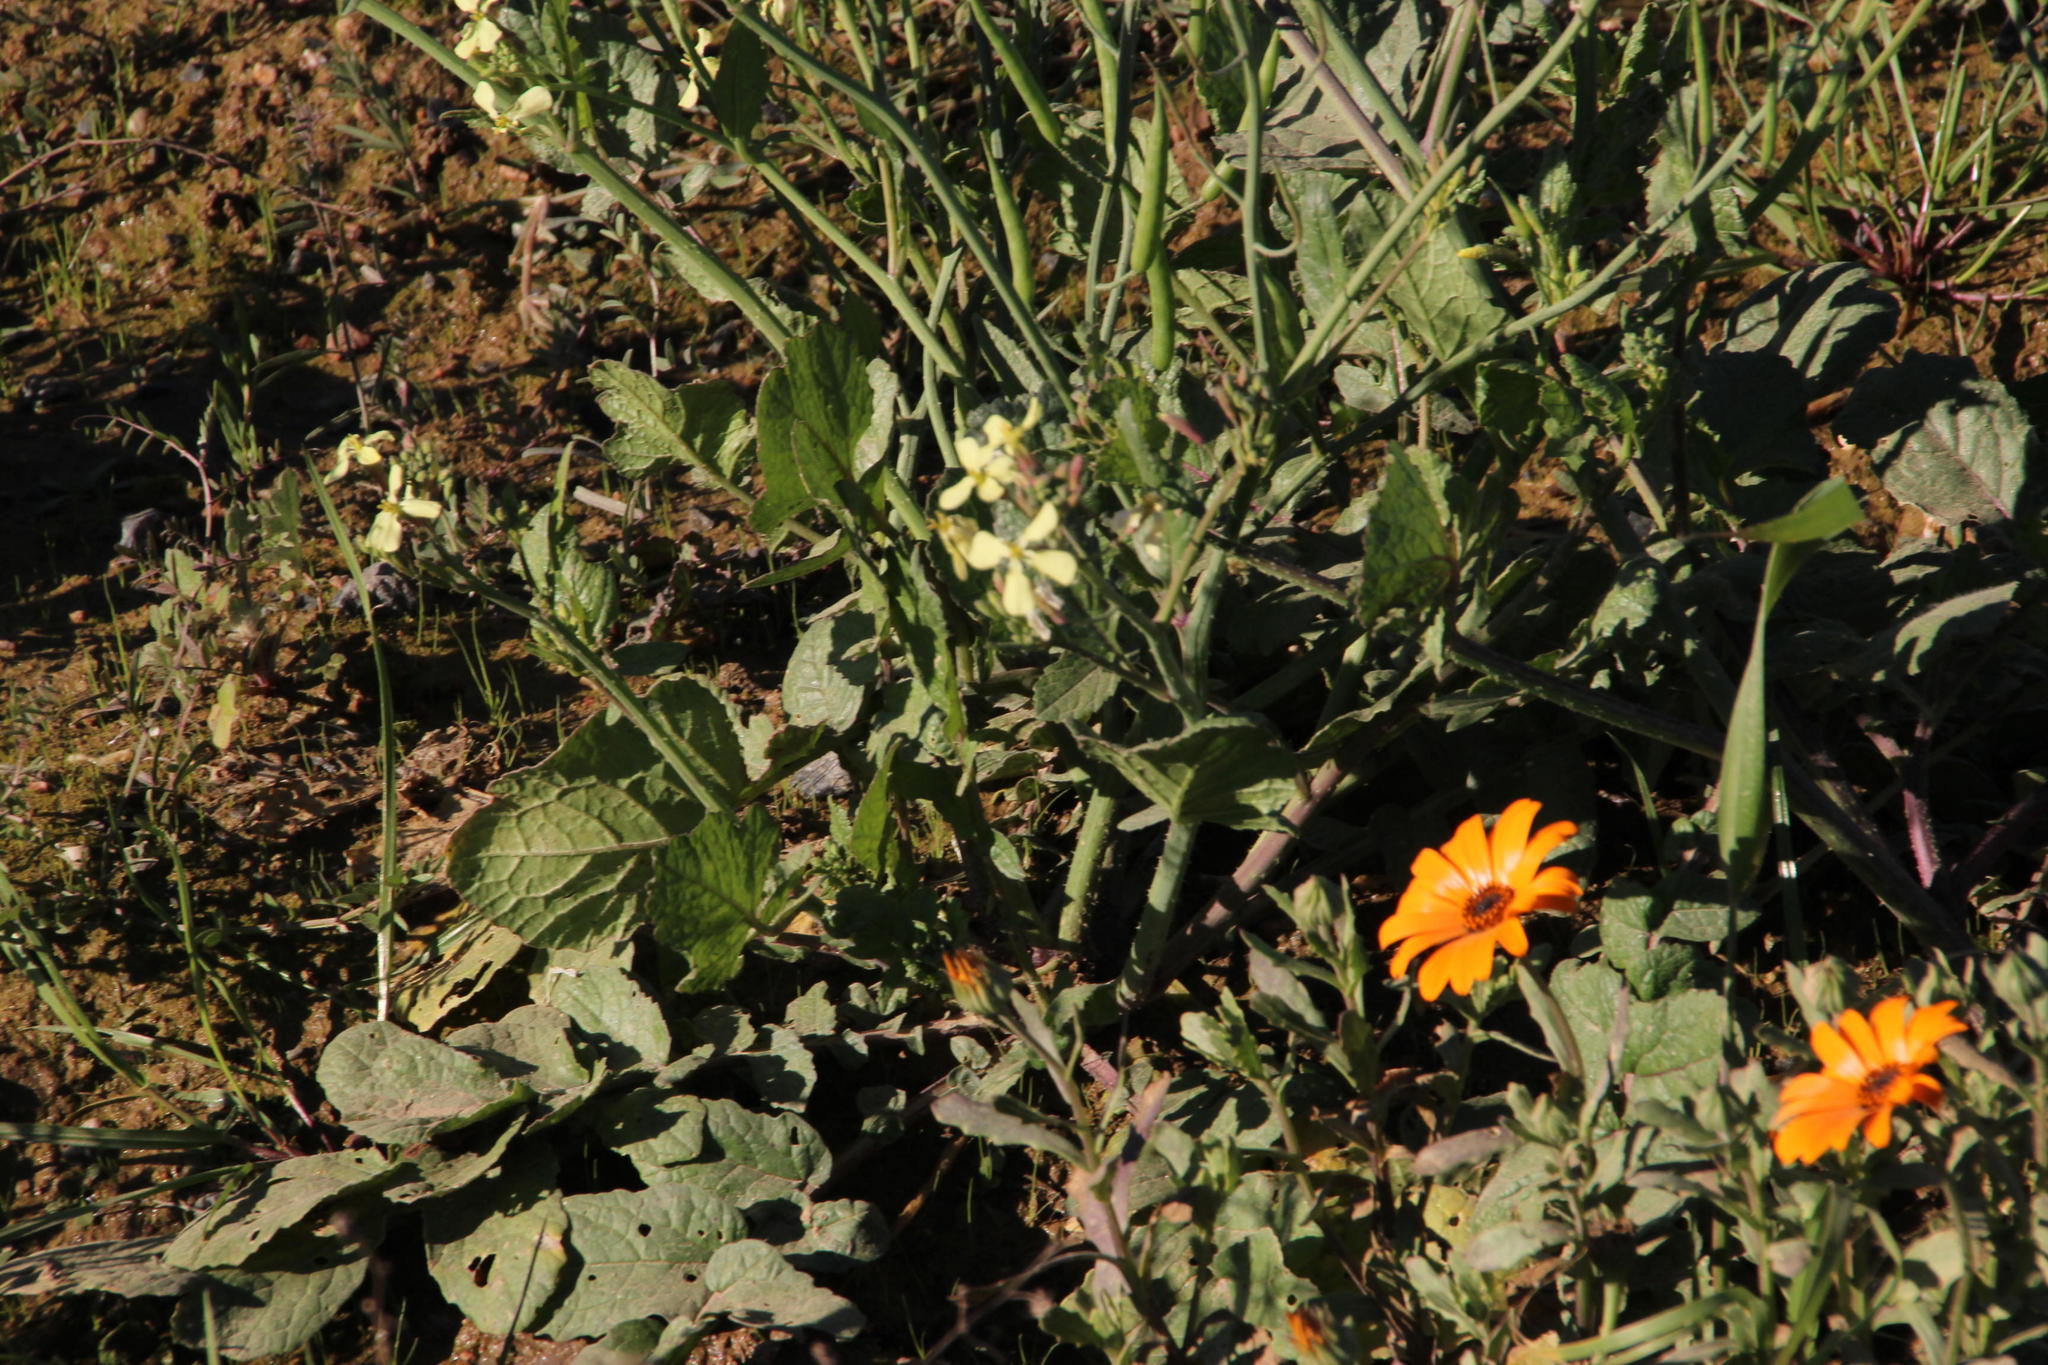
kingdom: Plantae
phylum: Tracheophyta
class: Magnoliopsida
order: Brassicales
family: Brassicaceae
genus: Raphanus
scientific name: Raphanus raphanistrum
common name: Wild radish
